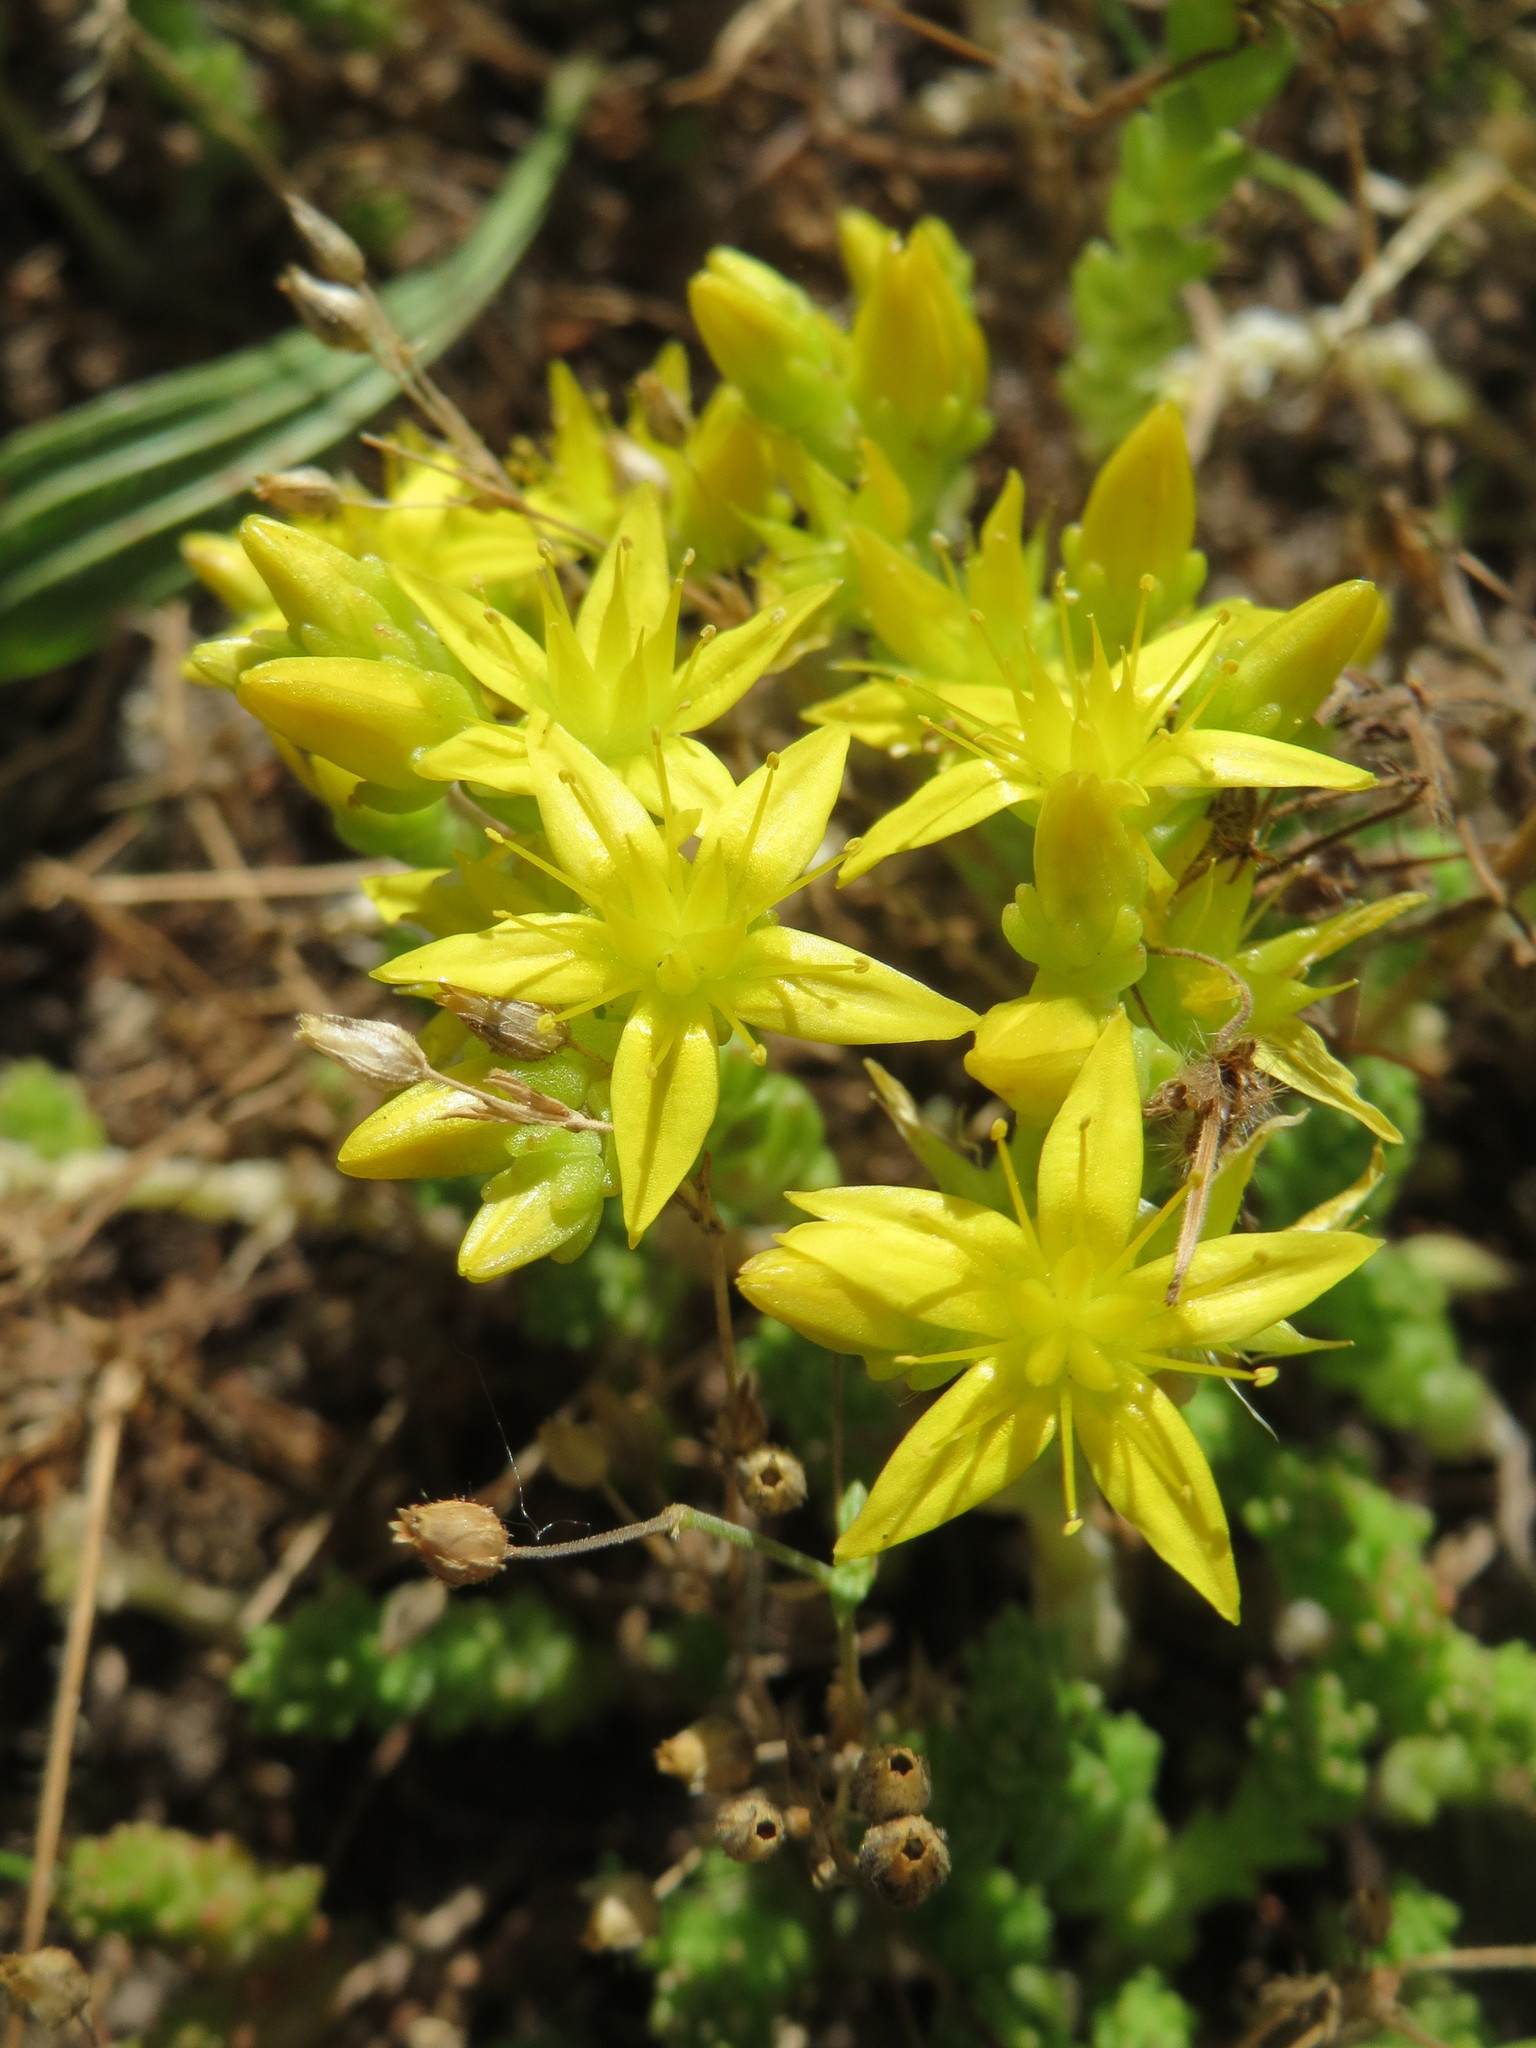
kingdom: Plantae
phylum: Tracheophyta
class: Magnoliopsida
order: Saxifragales
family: Crassulaceae
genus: Sedum
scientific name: Sedum acre
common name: Biting stonecrop
